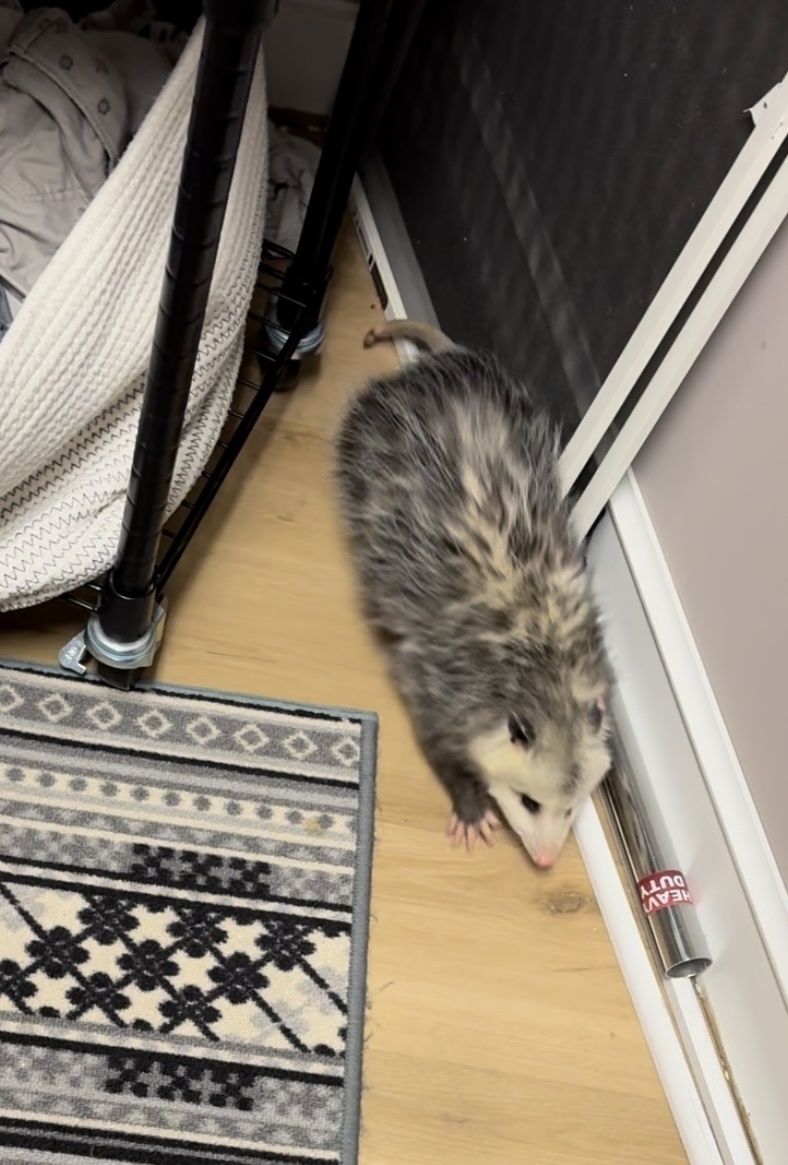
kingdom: Animalia
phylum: Chordata
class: Mammalia
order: Didelphimorphia
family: Didelphidae
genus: Didelphis
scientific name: Didelphis virginiana
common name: Virginia opossum
